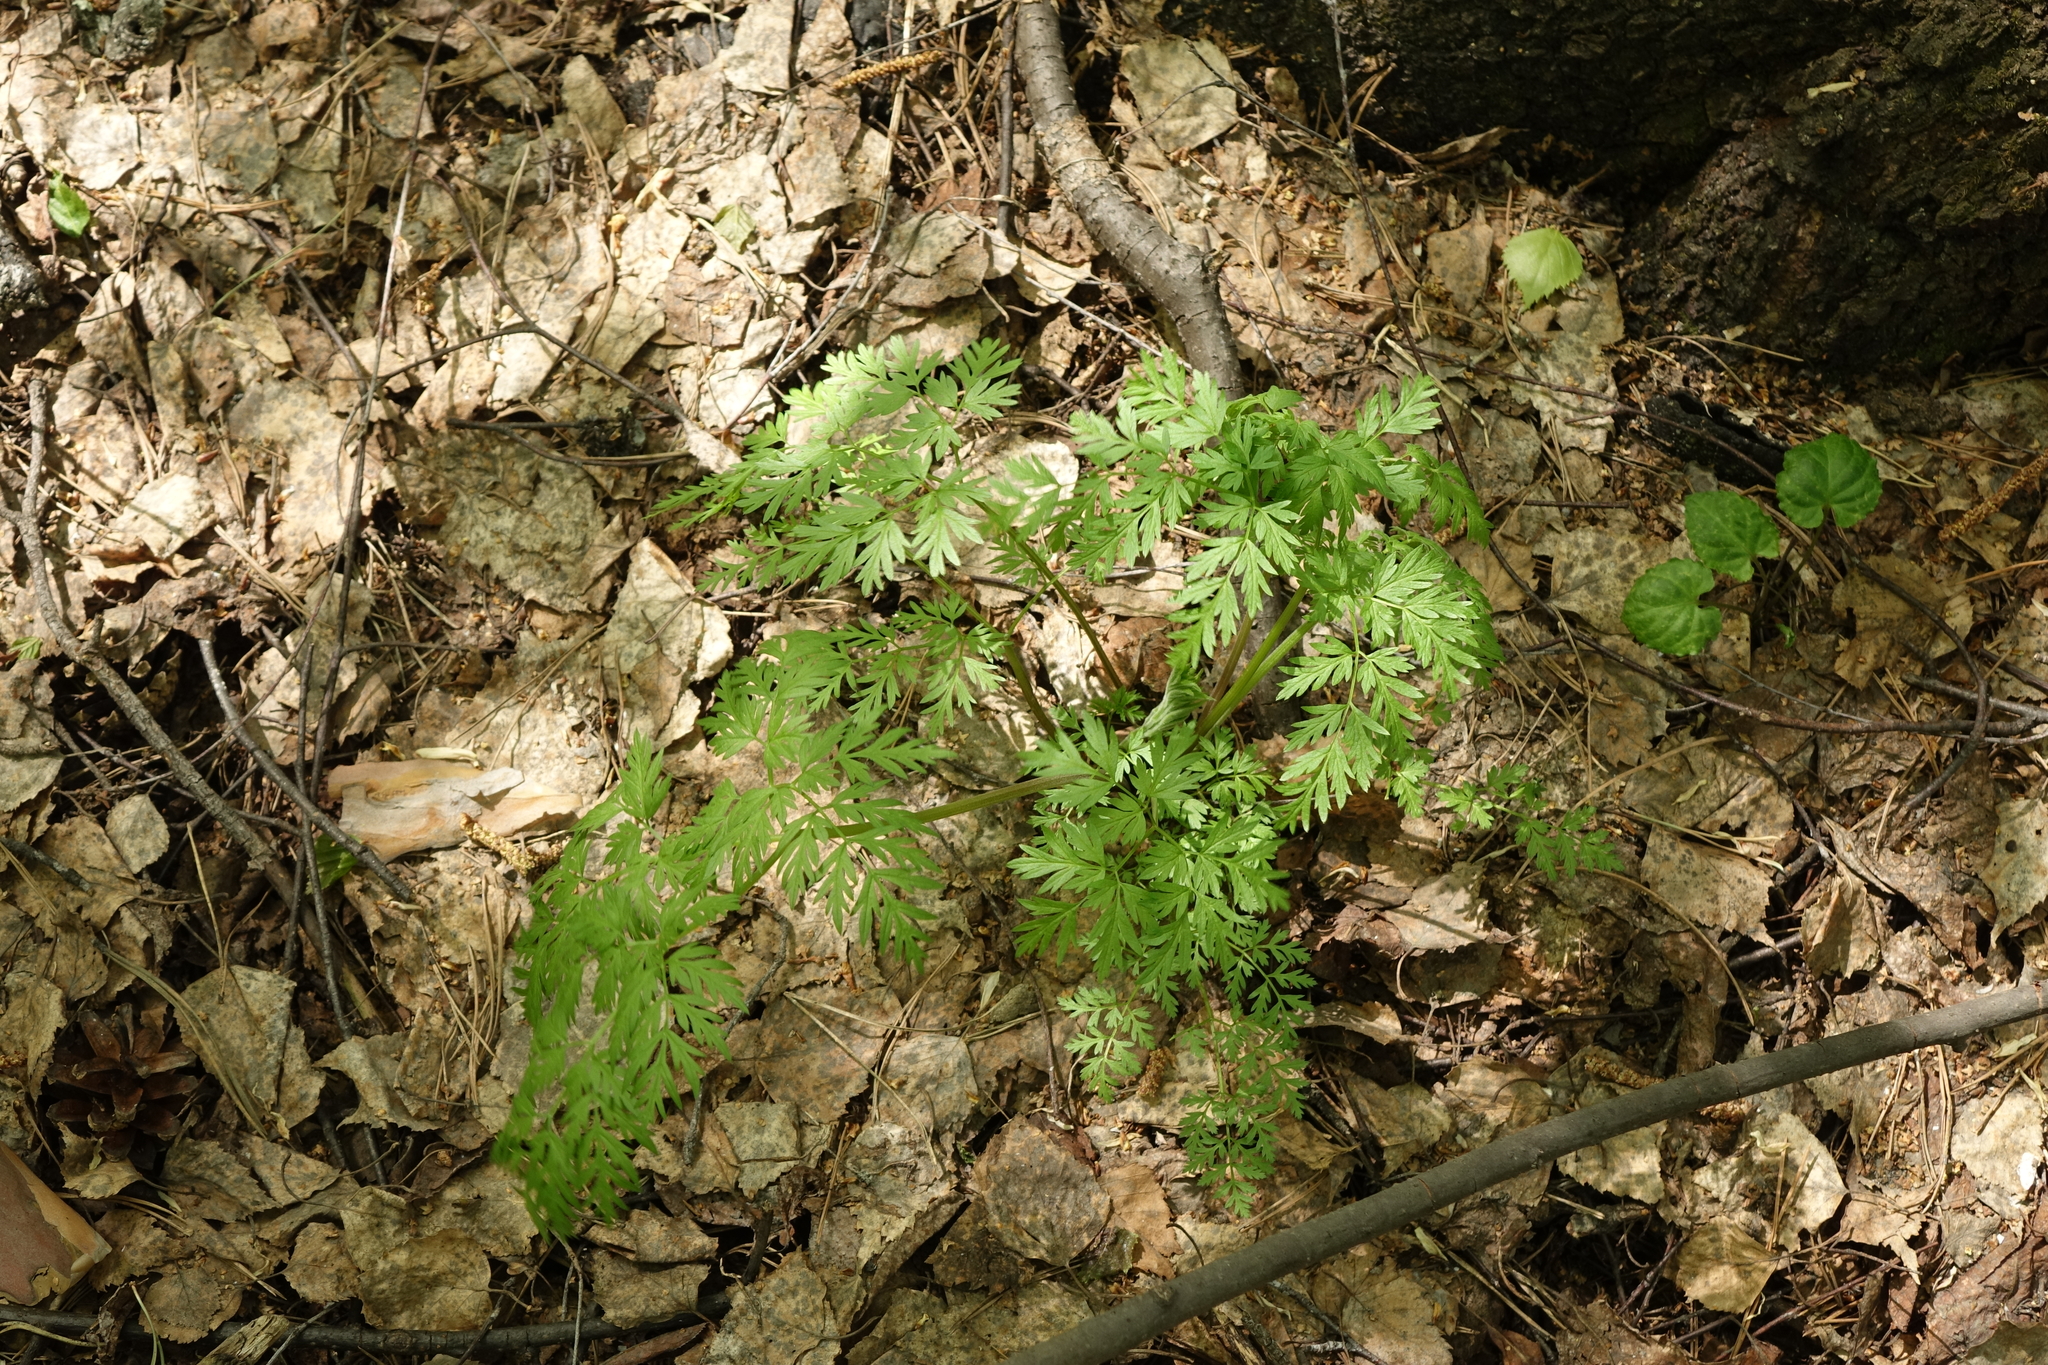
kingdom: Plantae
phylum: Tracheophyta
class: Magnoliopsida
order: Apiales
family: Apiaceae
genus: Anthriscus
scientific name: Anthriscus sylvestris
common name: Cow parsley
